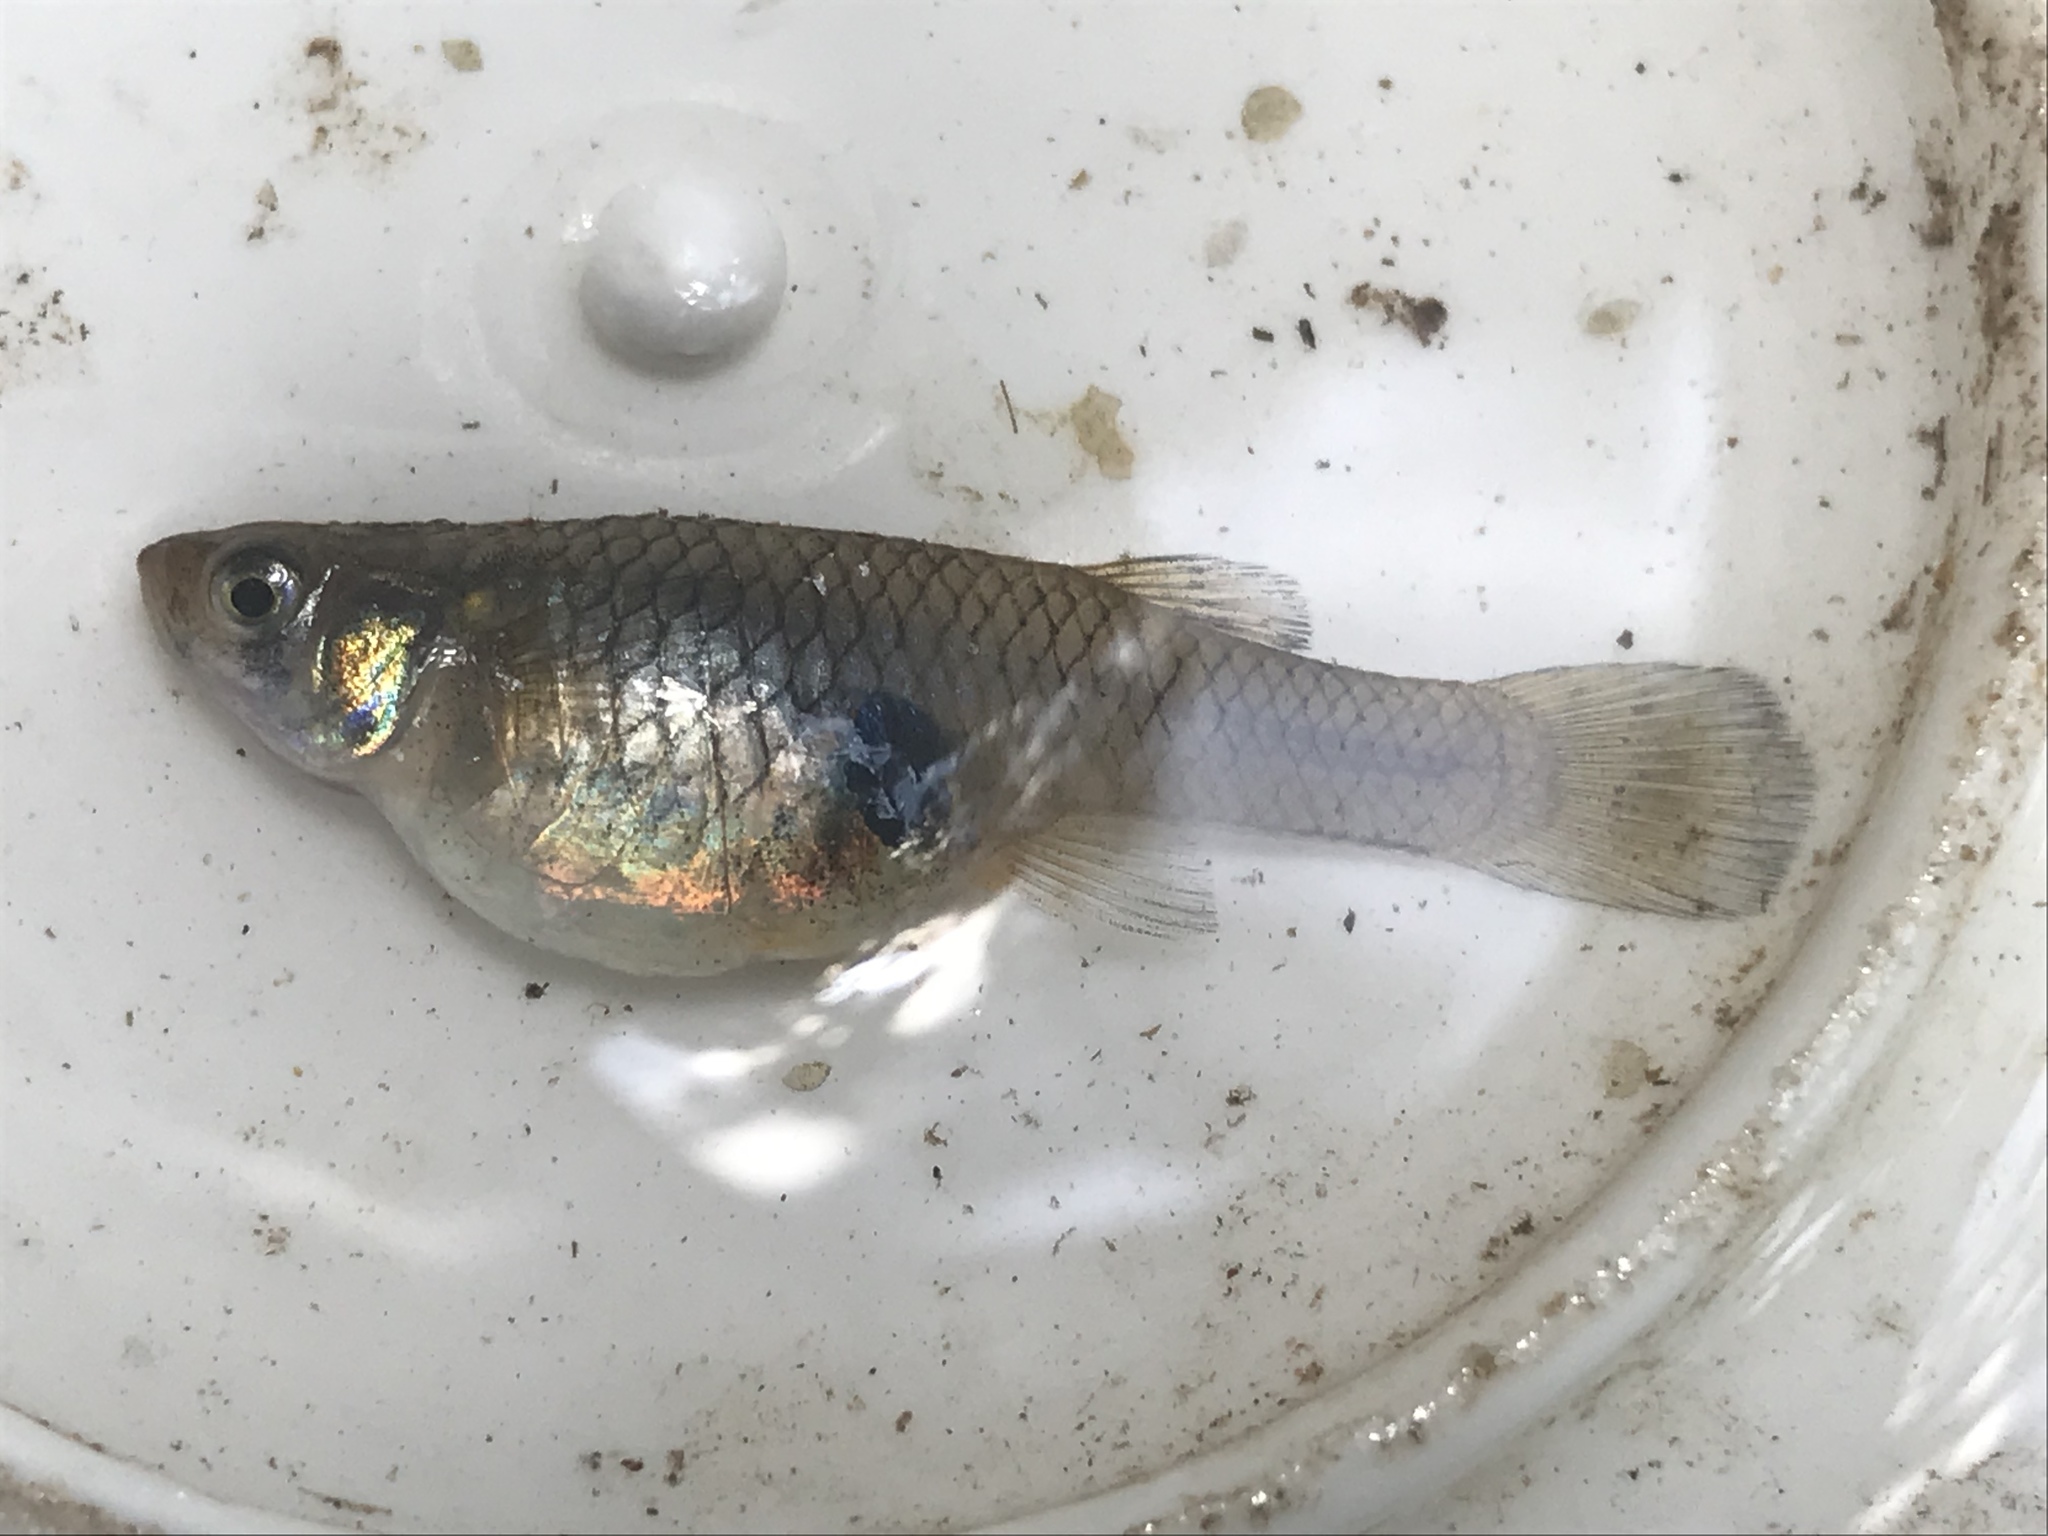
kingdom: Animalia
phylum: Chordata
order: Cyprinodontiformes
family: Poeciliidae
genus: Gambusia
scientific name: Gambusia affinis
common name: Mosquitofish
